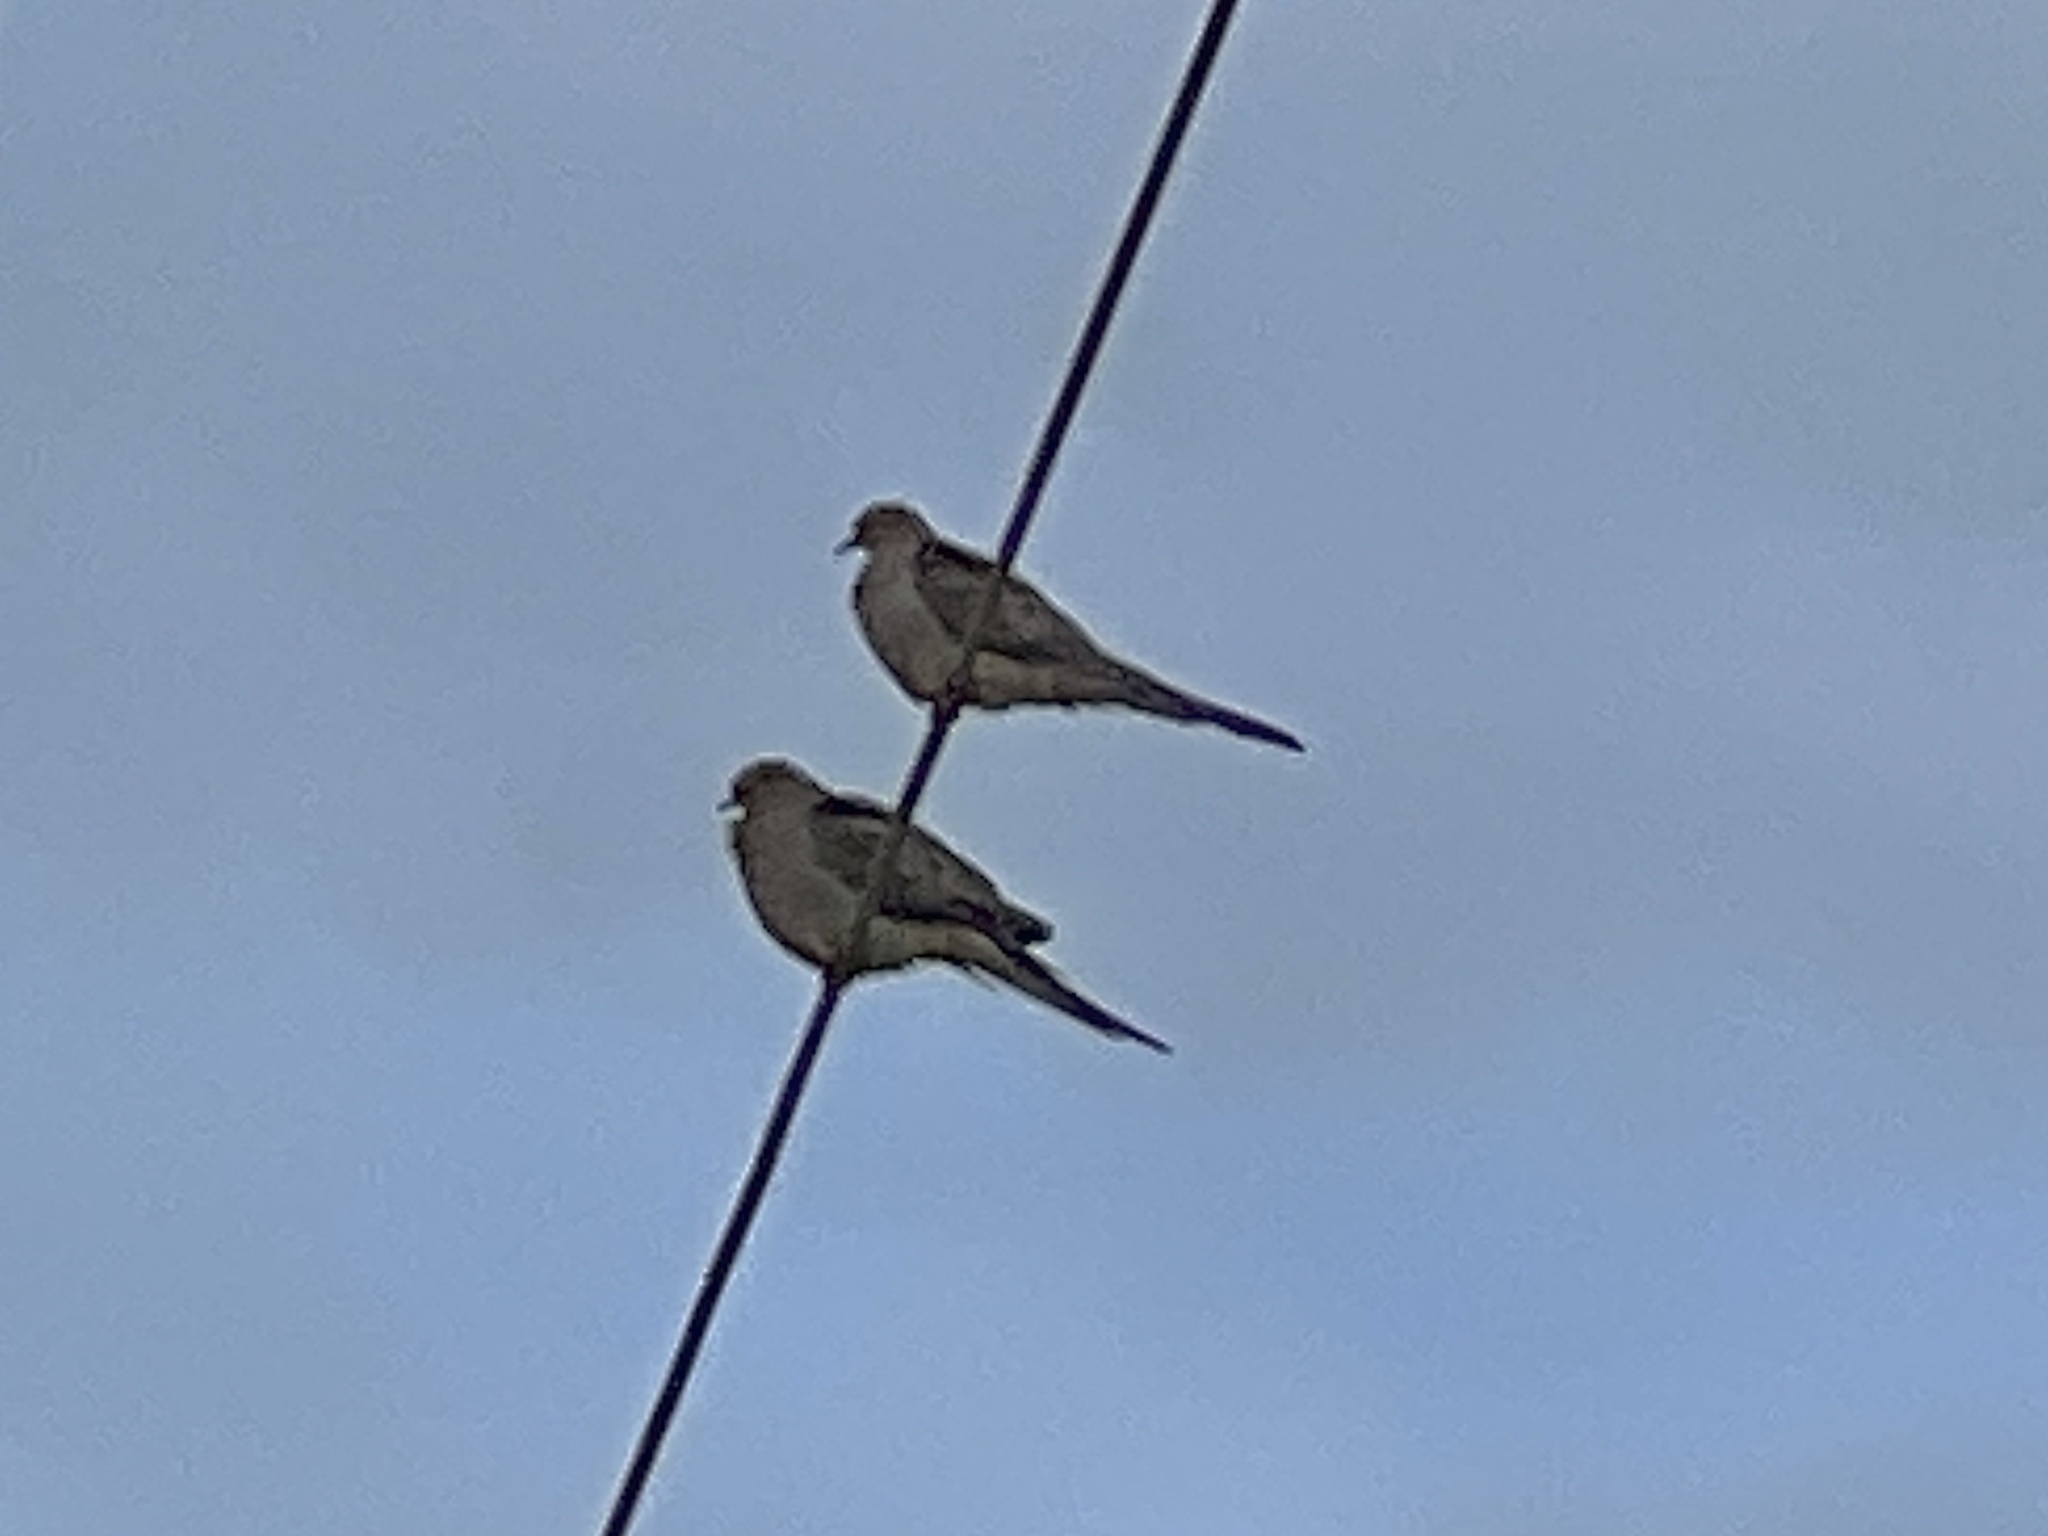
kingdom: Animalia
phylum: Chordata
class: Aves
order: Columbiformes
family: Columbidae
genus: Zenaida
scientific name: Zenaida macroura
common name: Mourning dove
